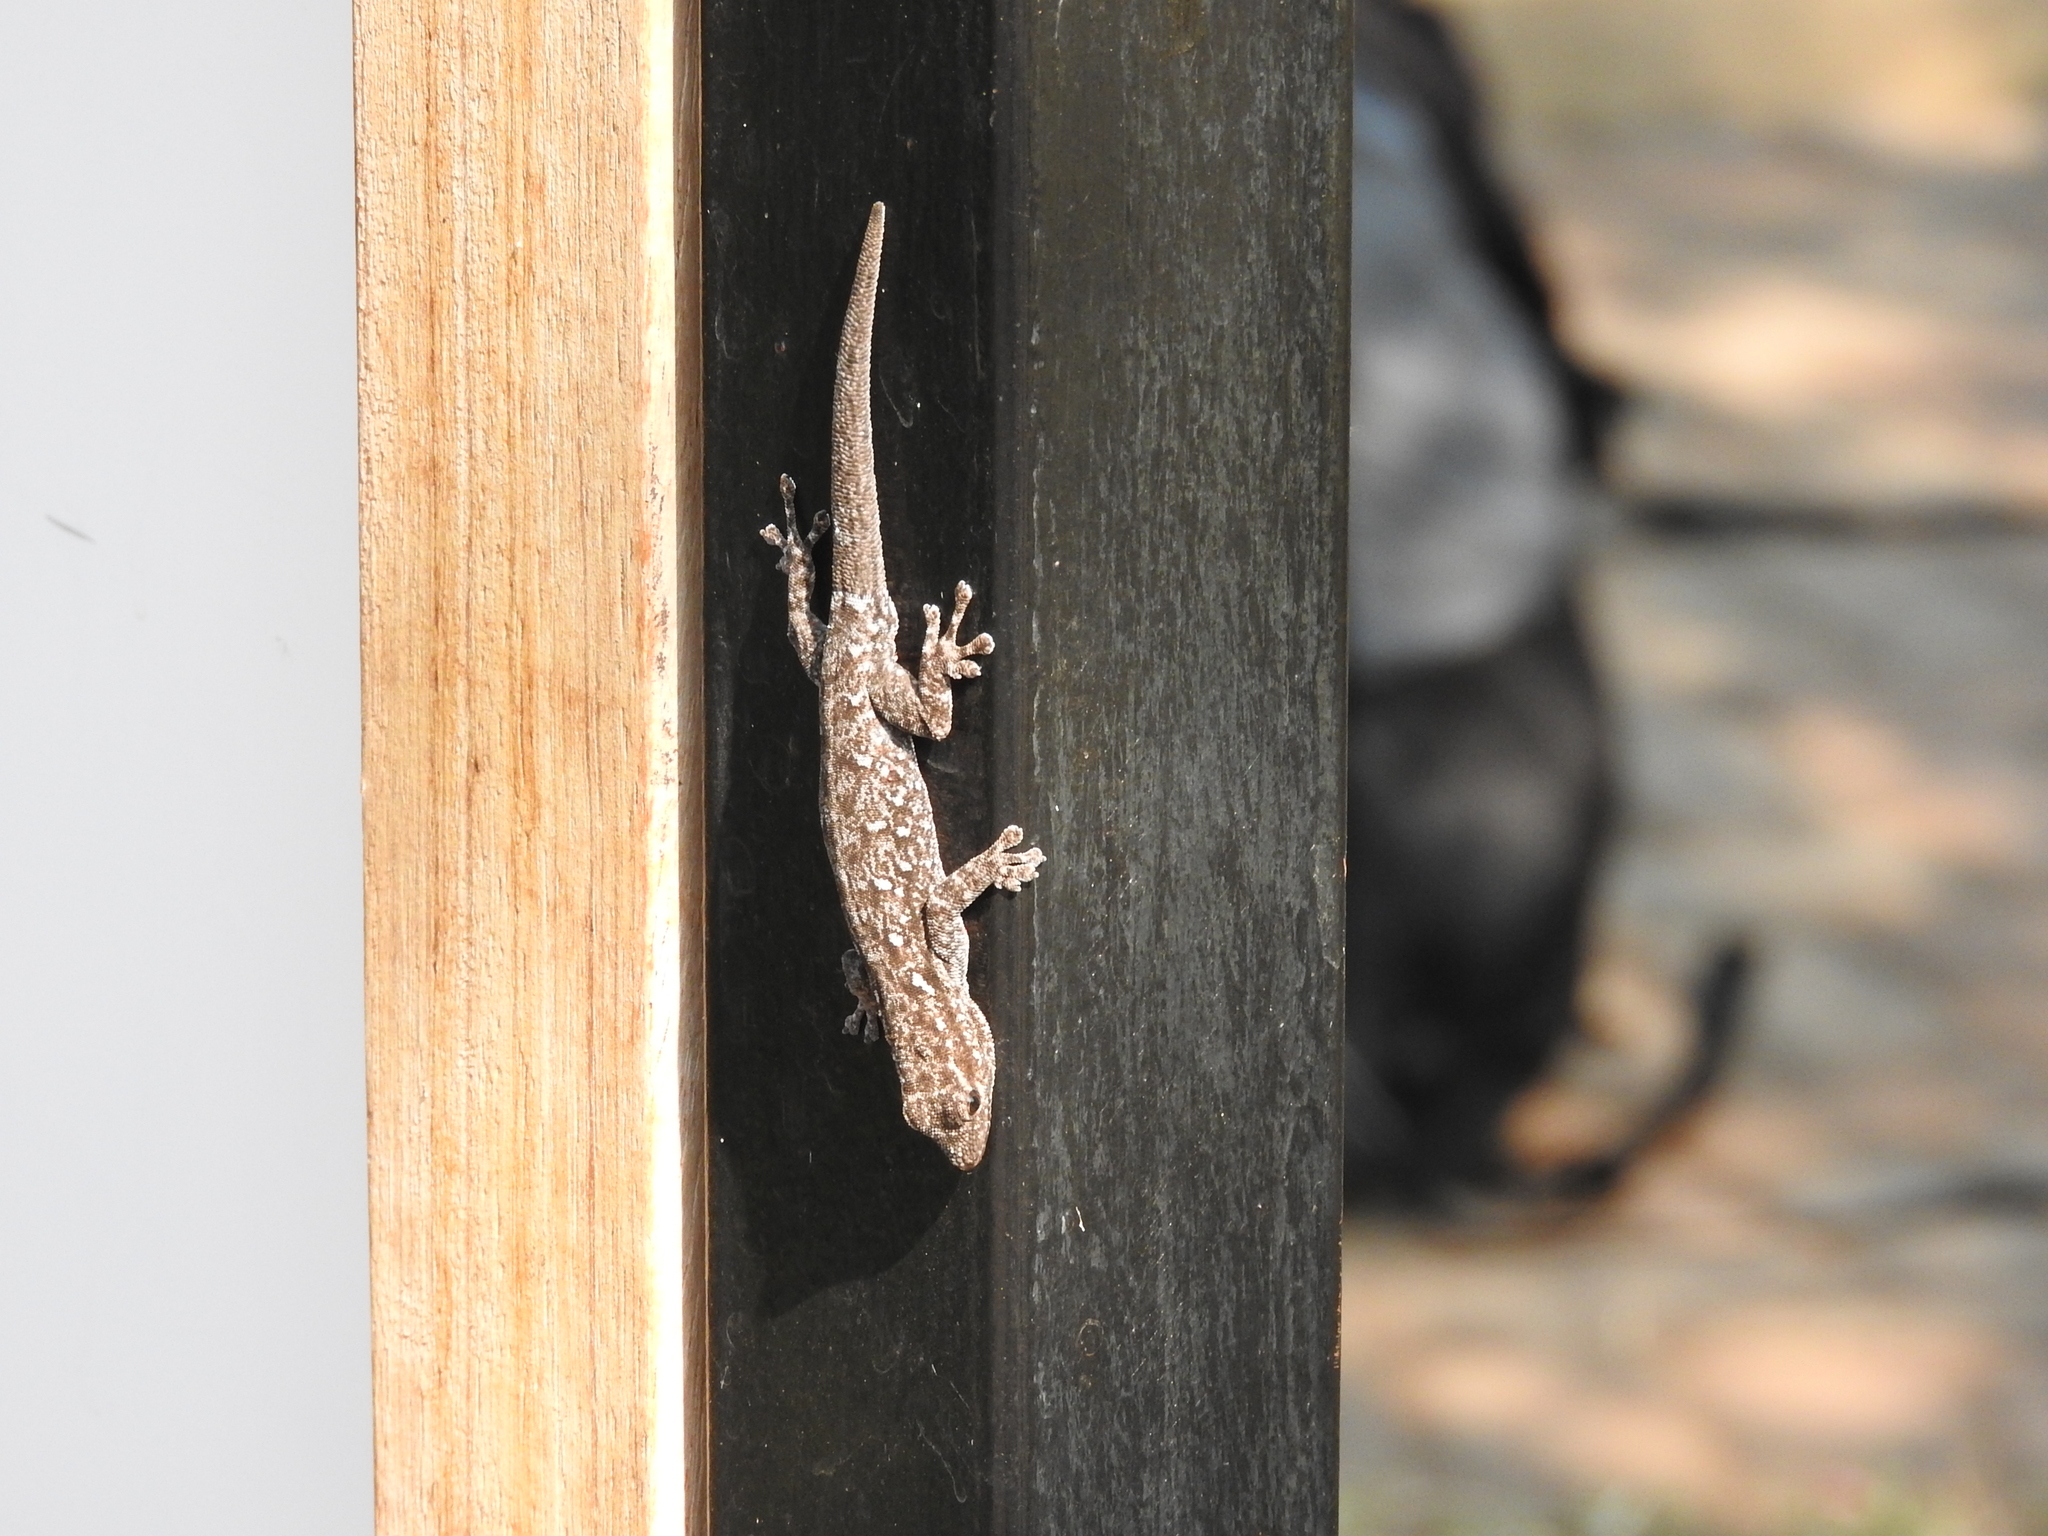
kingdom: Animalia
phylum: Chordata
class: Squamata
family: Gekkonidae
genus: Lygodactylus
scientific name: Lygodactylus chobiensis
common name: Okavango dwarf gecko
